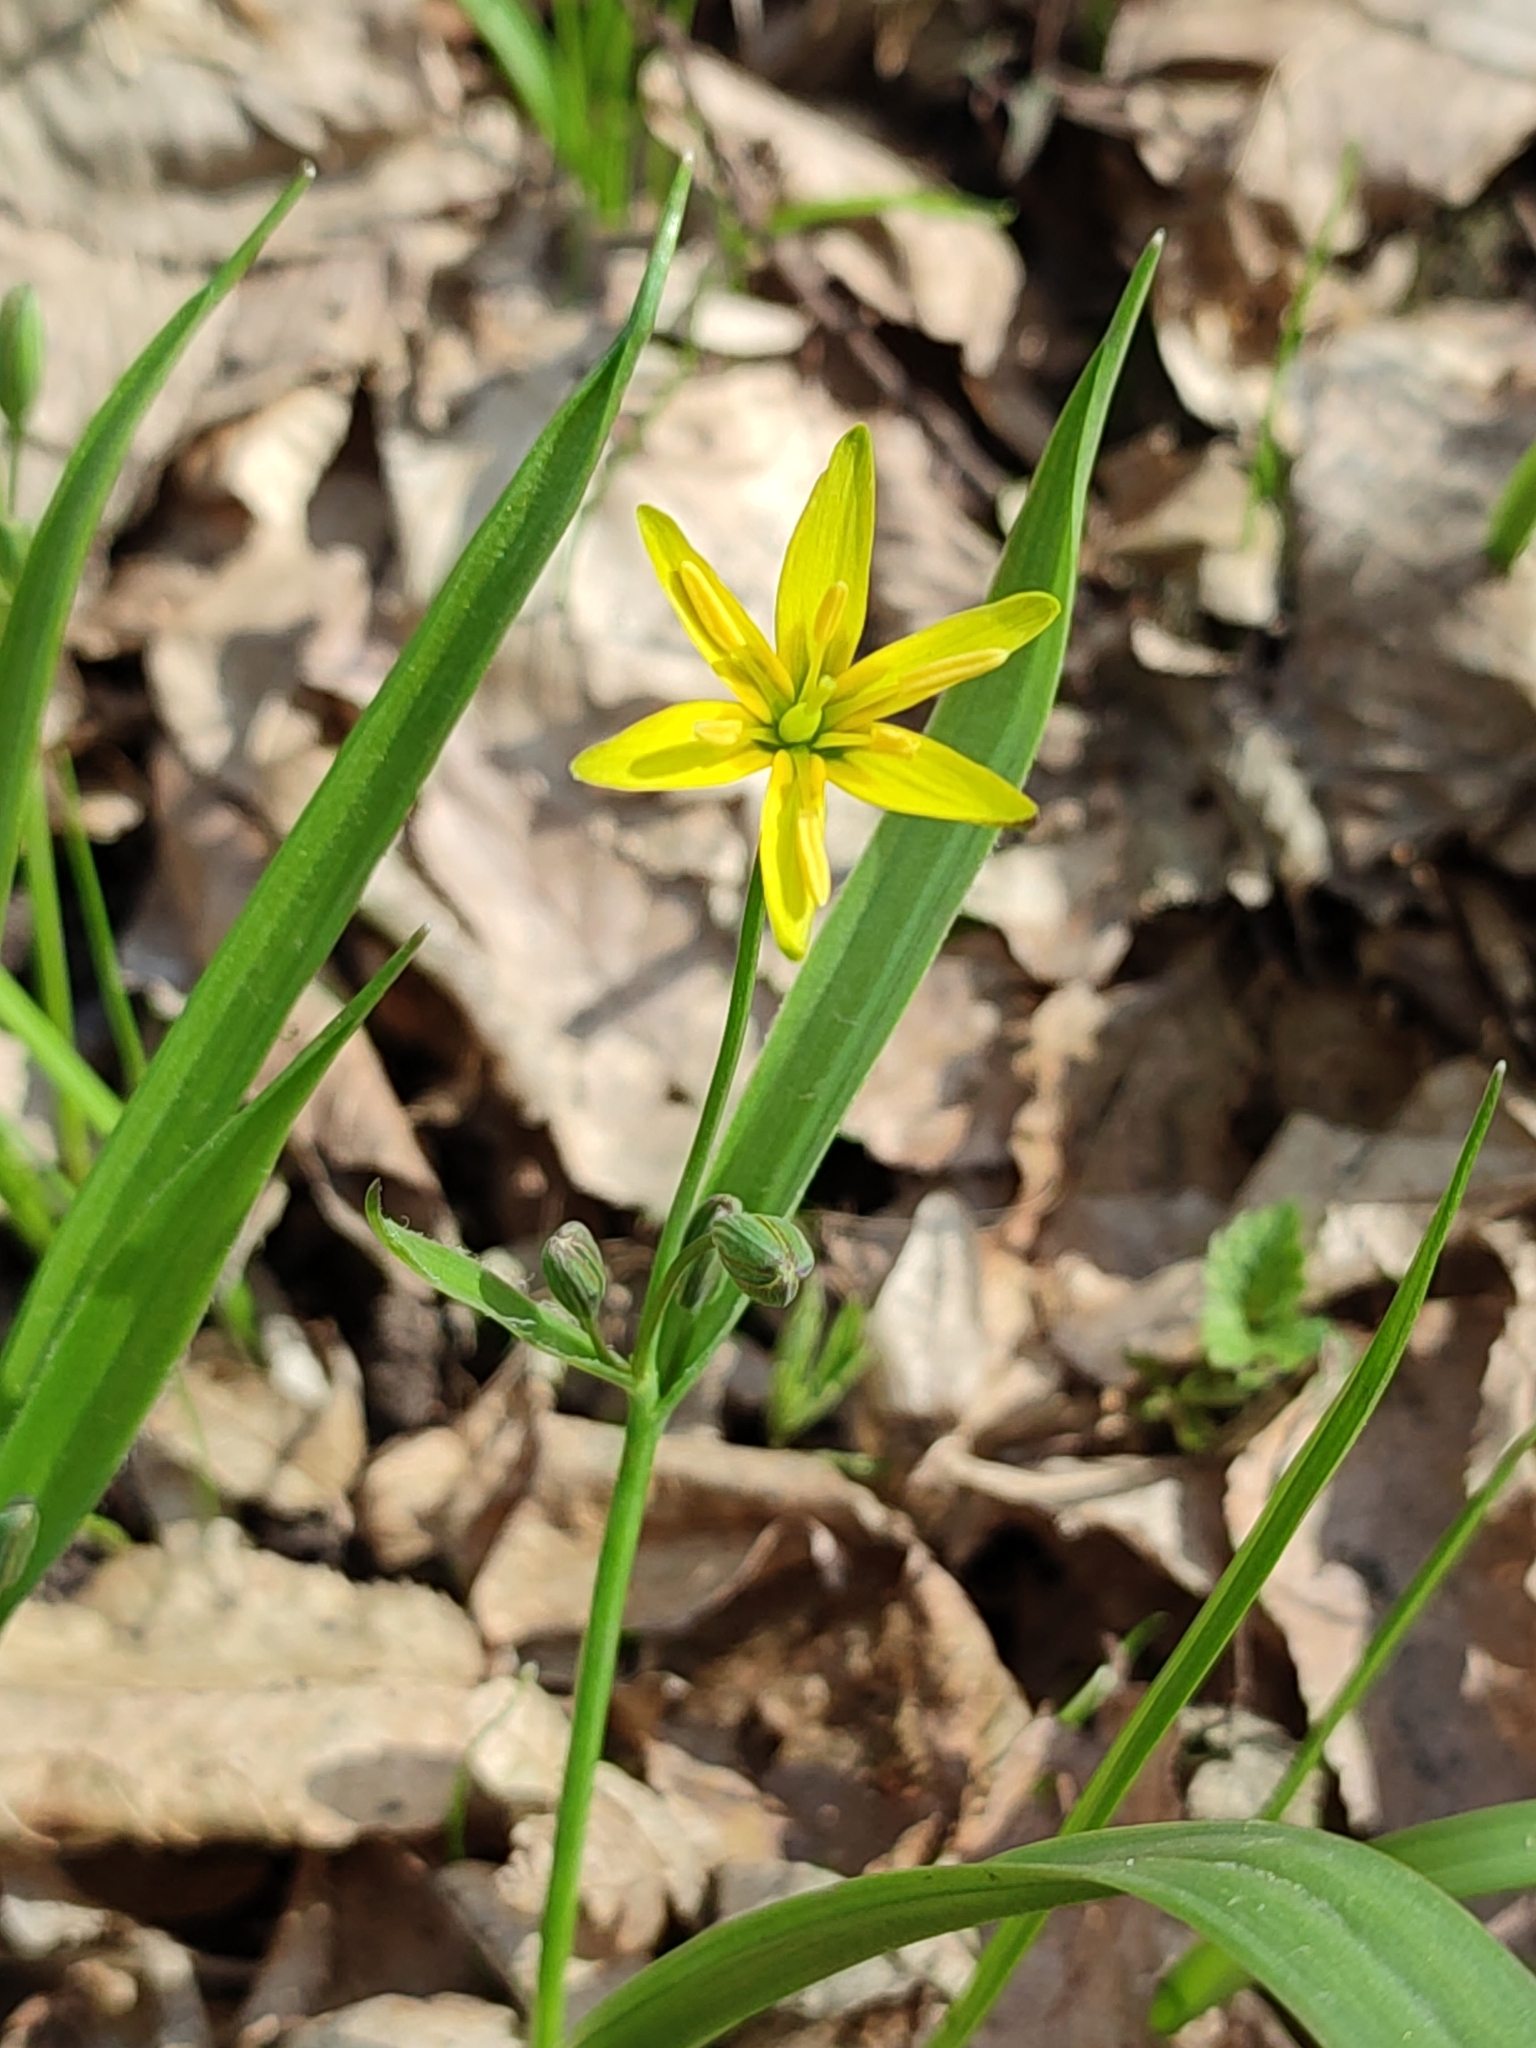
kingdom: Plantae
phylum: Tracheophyta
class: Liliopsida
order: Liliales
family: Liliaceae
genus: Gagea
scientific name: Gagea lutea
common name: Yellow star-of-bethlehem
